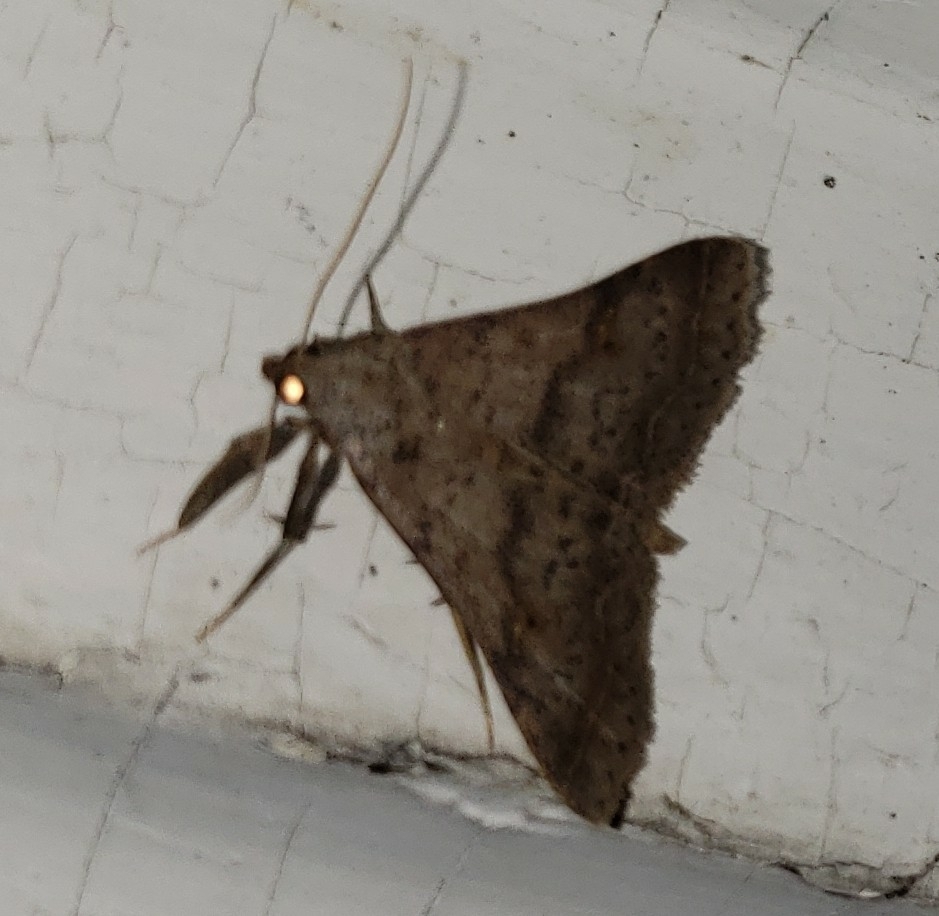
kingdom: Animalia
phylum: Arthropoda
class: Insecta
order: Lepidoptera
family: Erebidae
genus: Bleptina
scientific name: Bleptina caradrinalis
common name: Bent-winged owlet
